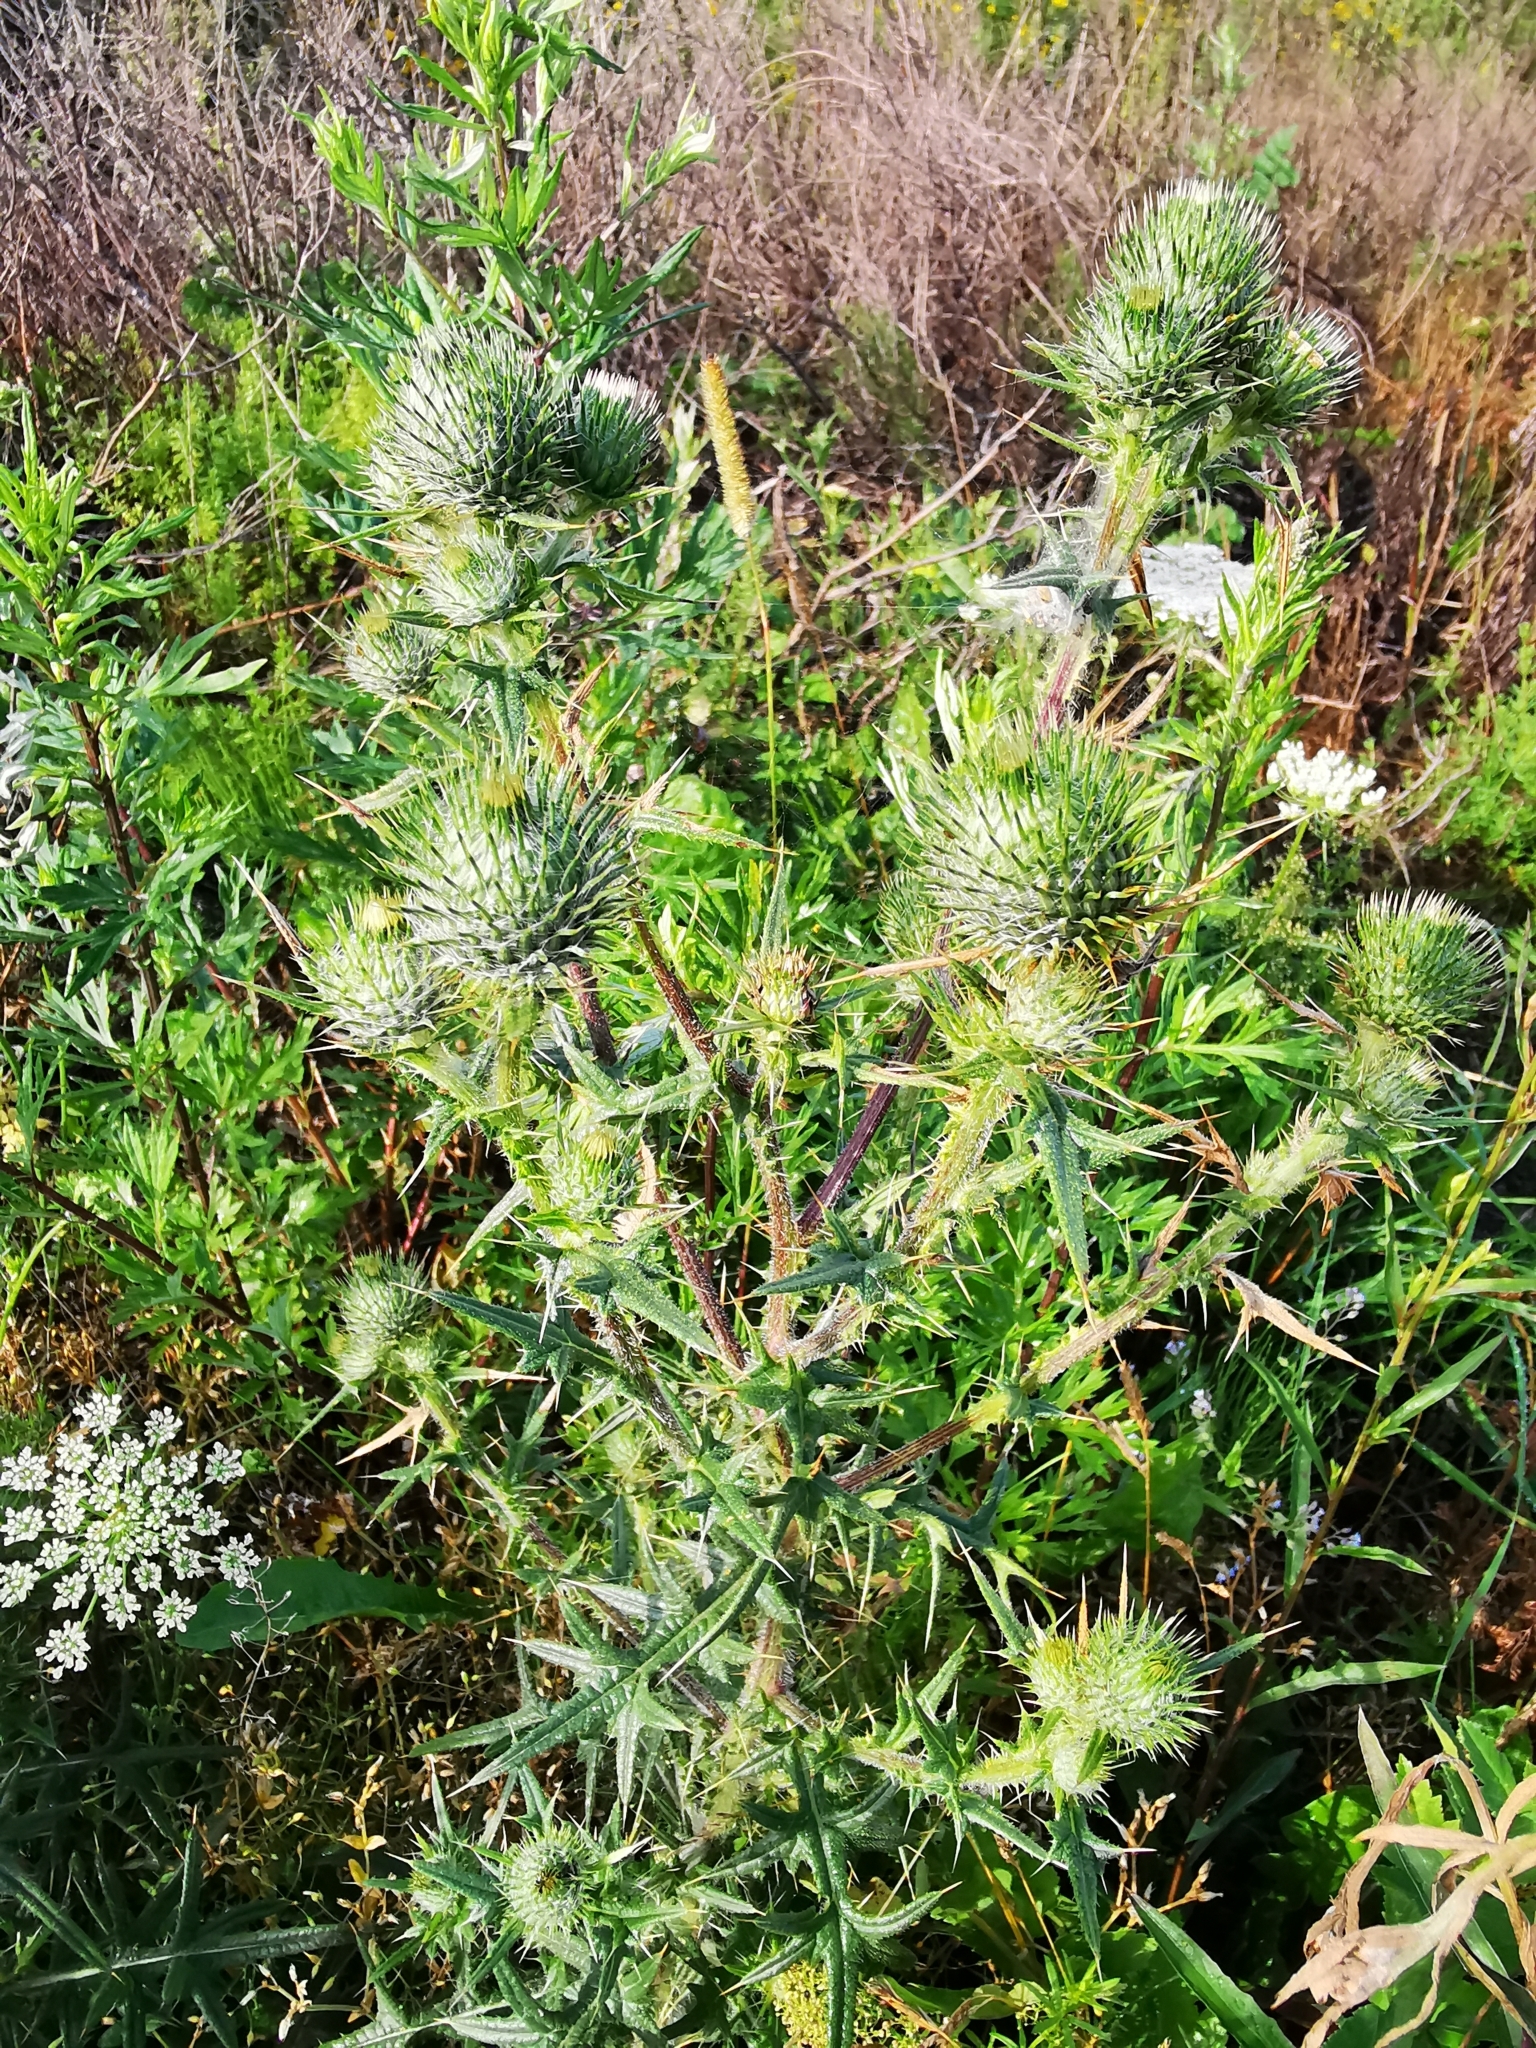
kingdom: Plantae
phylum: Tracheophyta
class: Magnoliopsida
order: Asterales
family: Asteraceae
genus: Cirsium
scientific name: Cirsium vulgare
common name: Bull thistle
